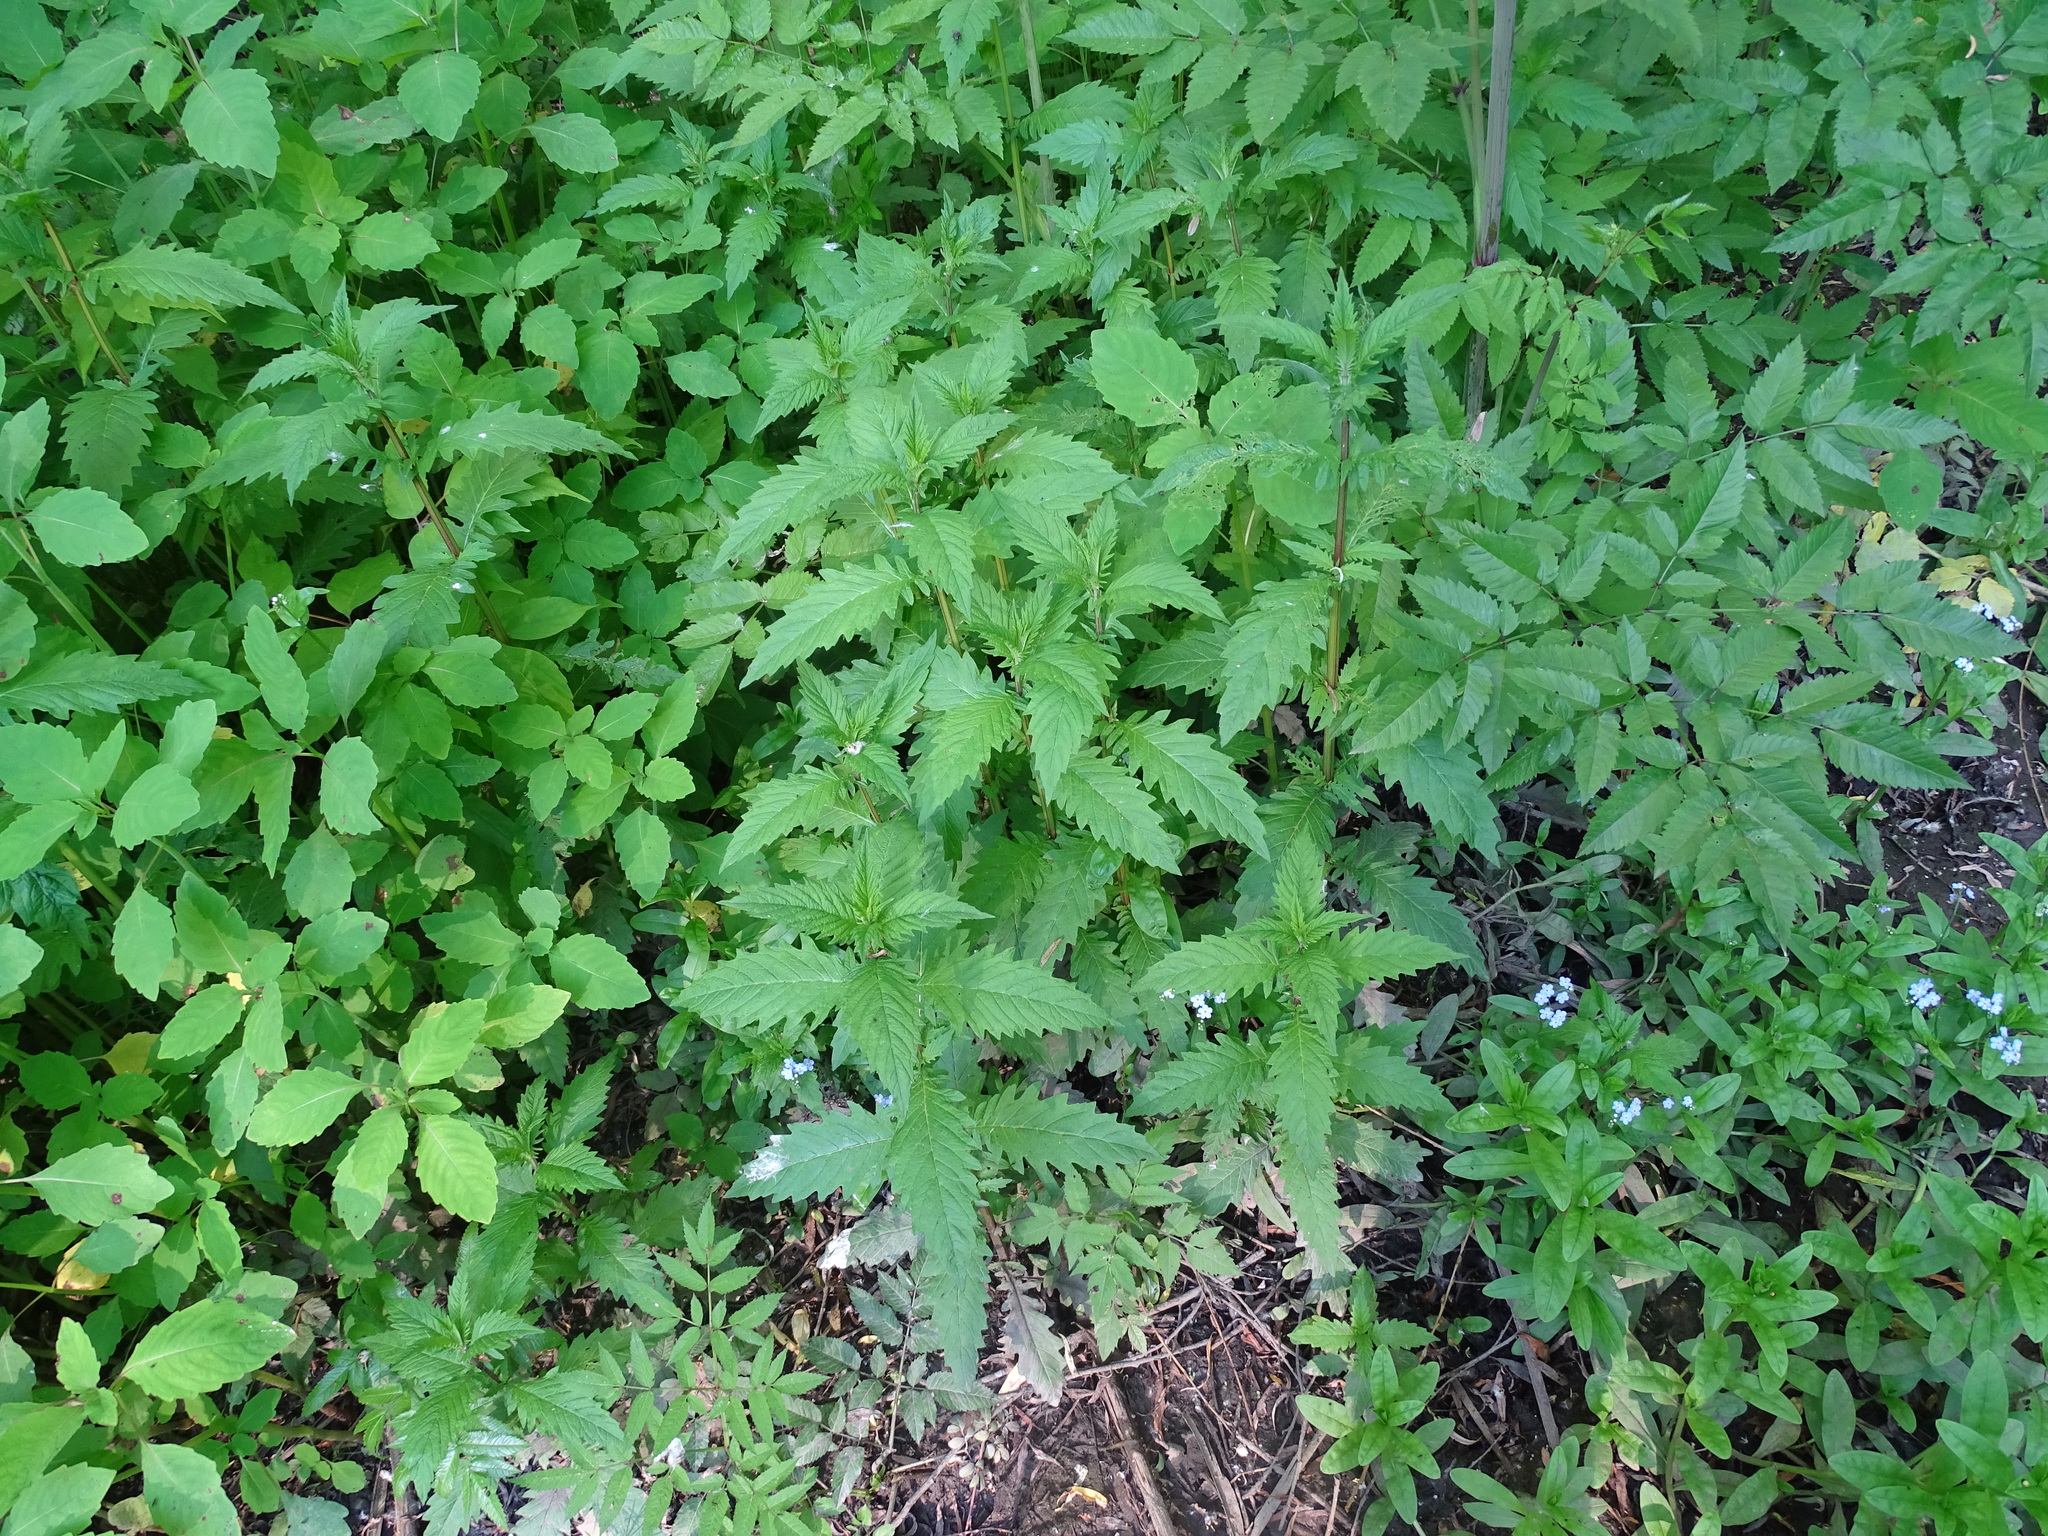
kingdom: Plantae
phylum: Tracheophyta
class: Magnoliopsida
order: Lamiales
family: Lamiaceae
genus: Lycopus
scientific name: Lycopus europaeus
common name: European bugleweed
